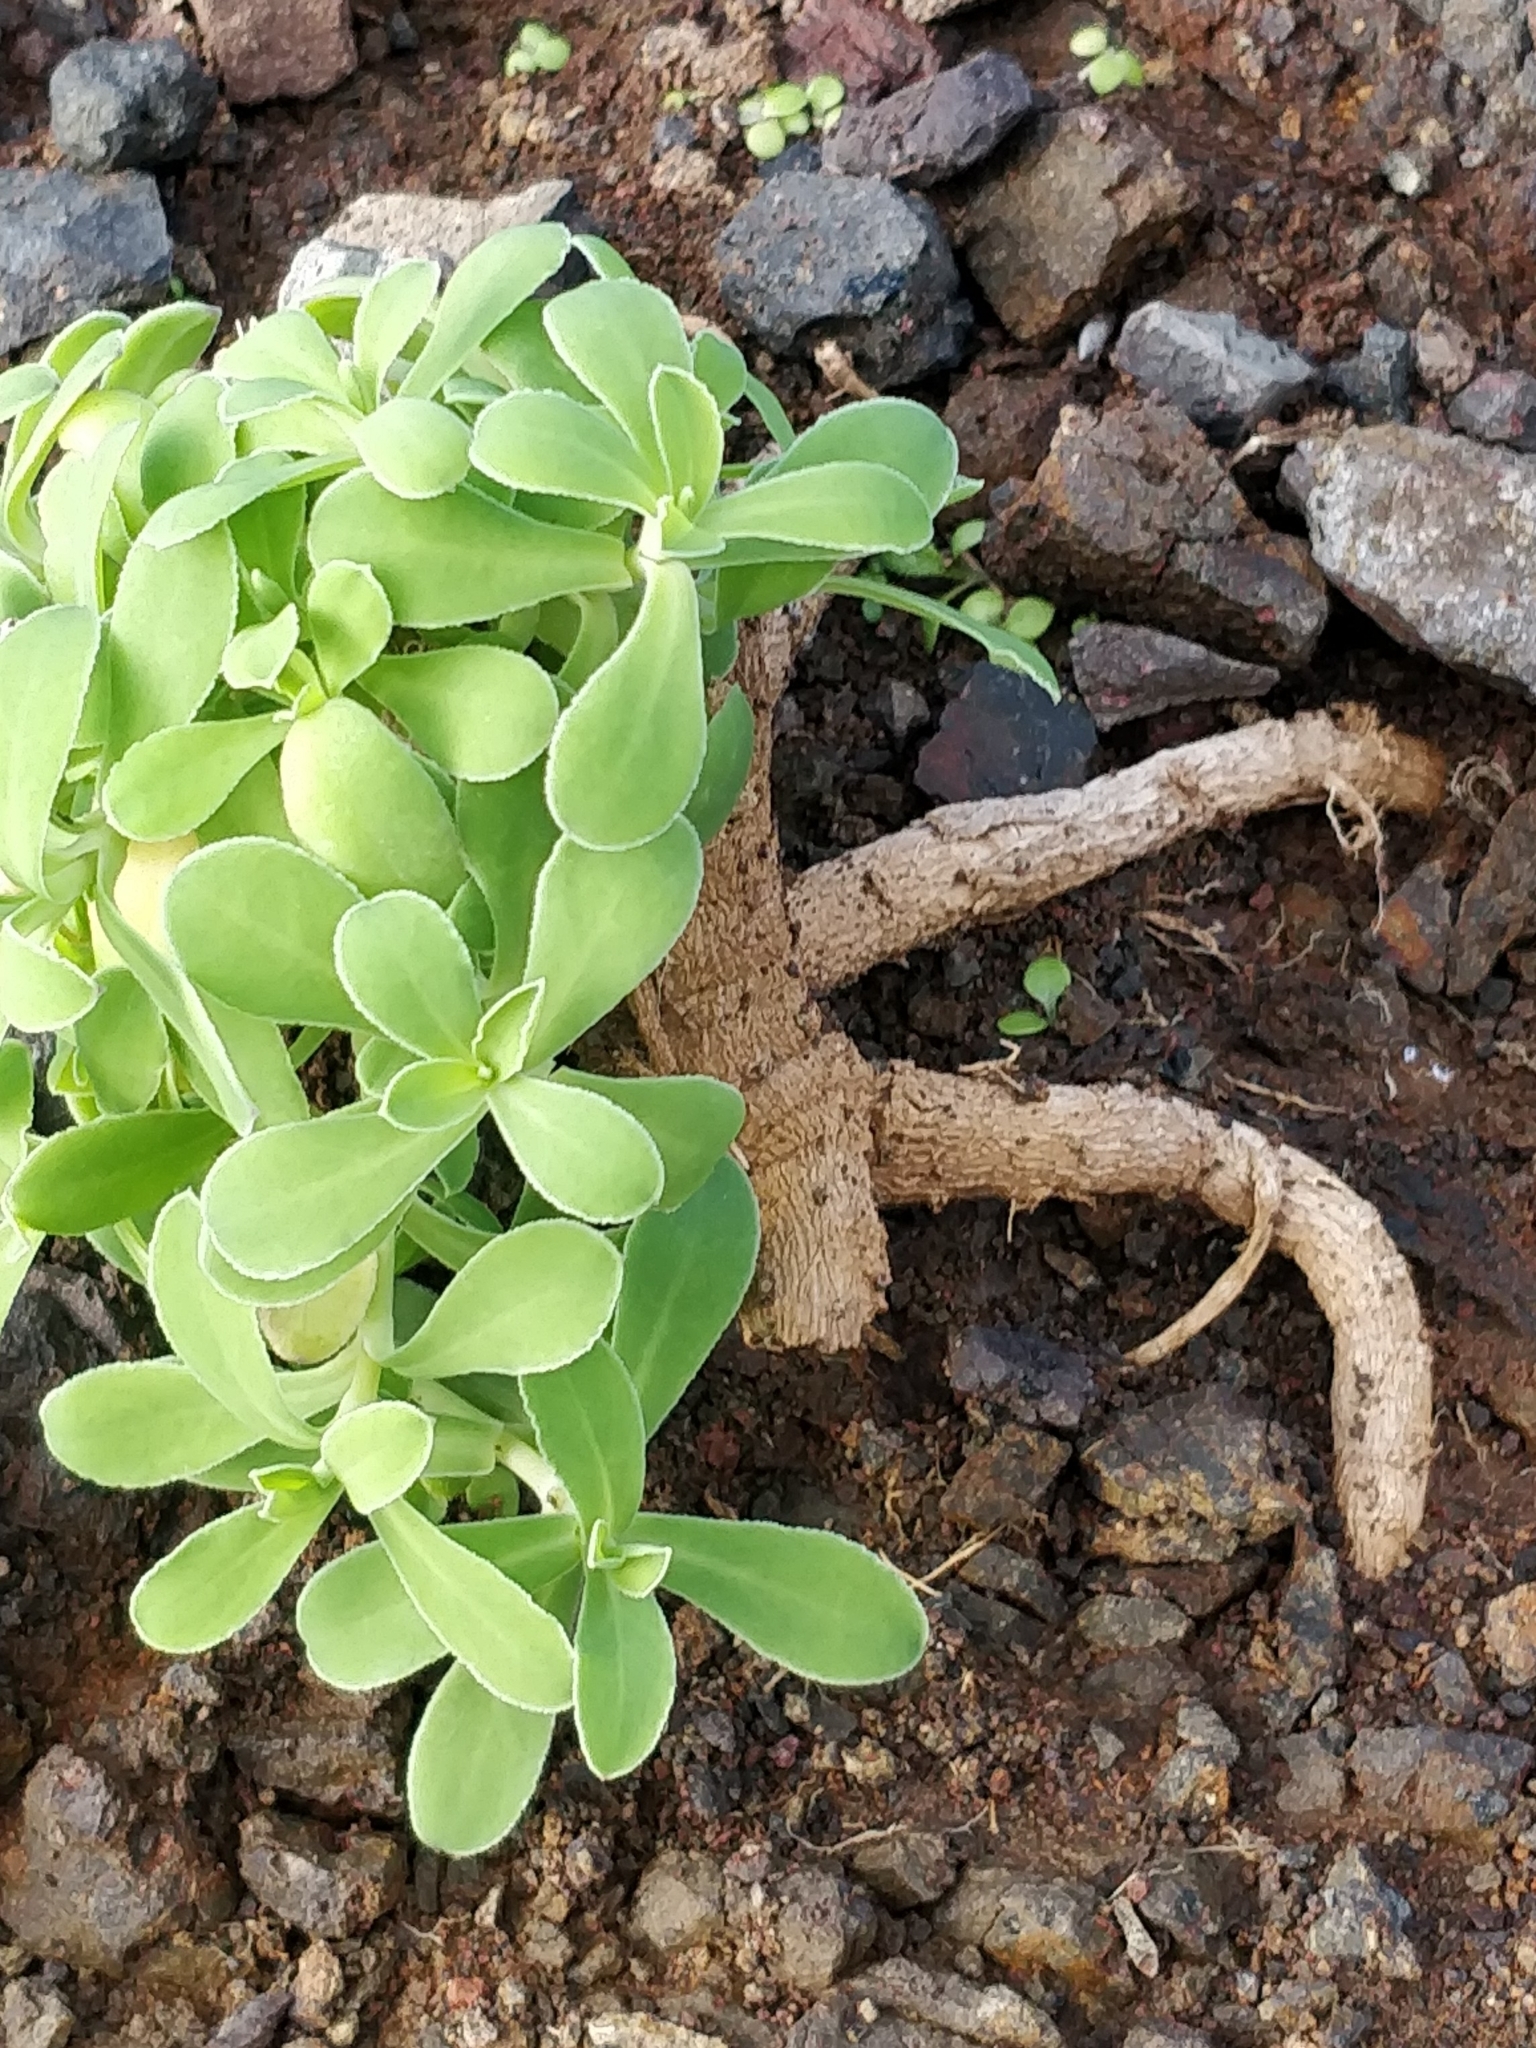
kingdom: Plantae
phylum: Tracheophyta
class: Magnoliopsida
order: Caryophyllales
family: Caryophyllaceae
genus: Silene
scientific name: Silene uniflora
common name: Sea campion
